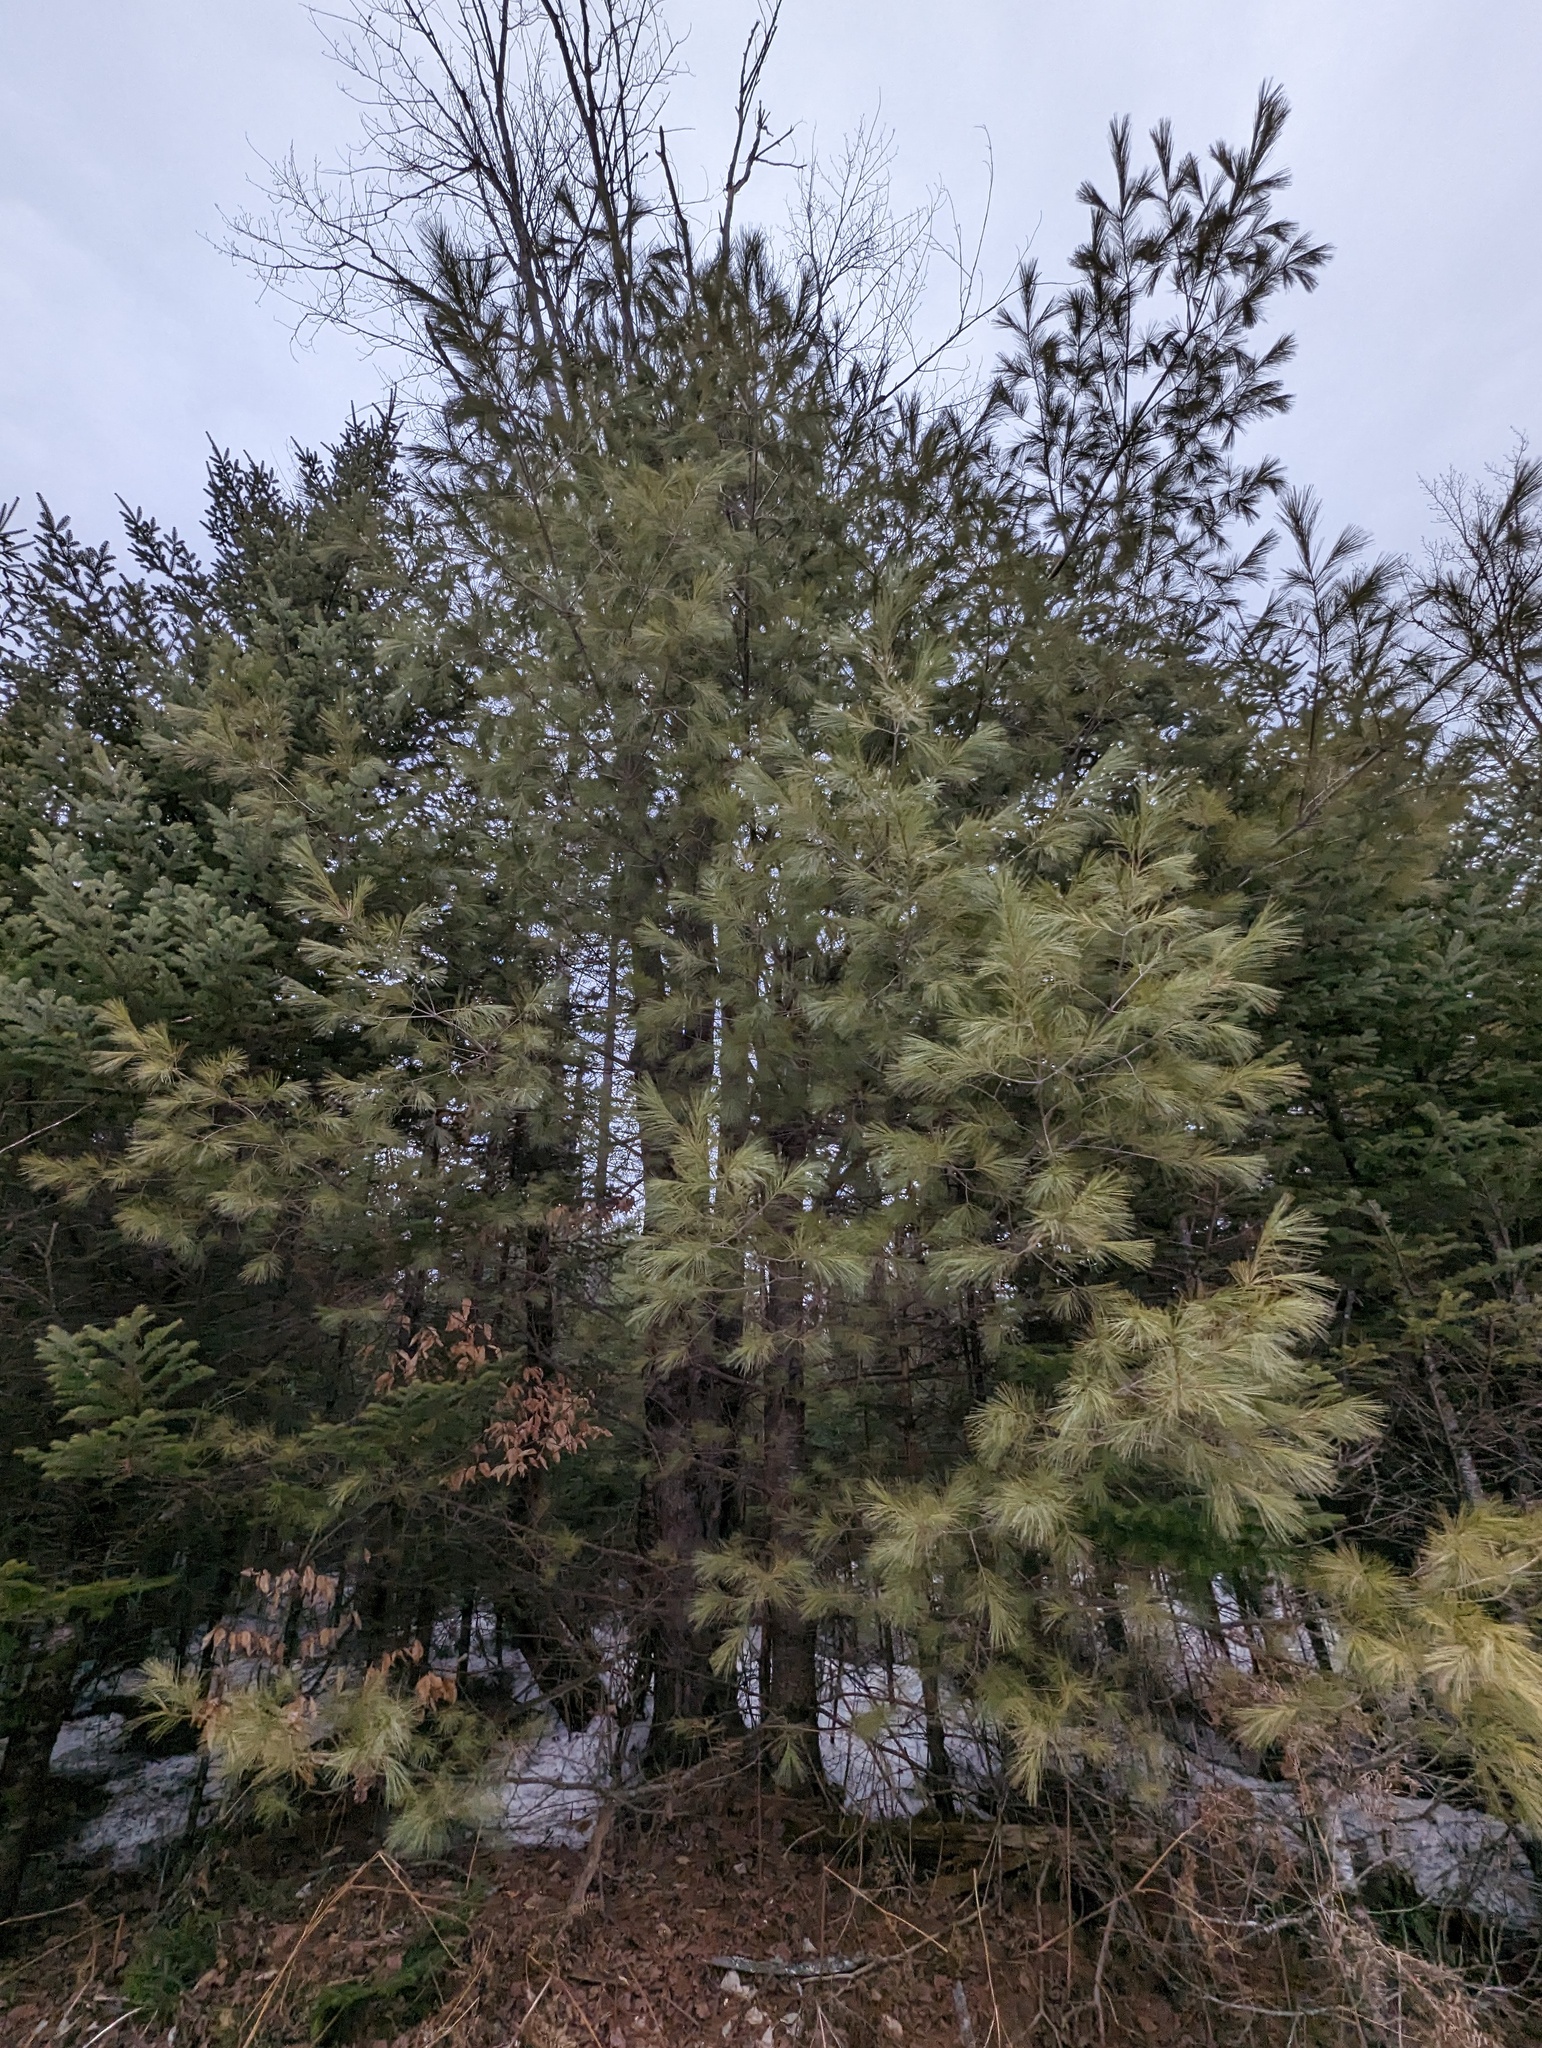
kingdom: Plantae
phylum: Tracheophyta
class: Pinopsida
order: Pinales
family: Pinaceae
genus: Pinus
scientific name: Pinus strobus
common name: Weymouth pine
